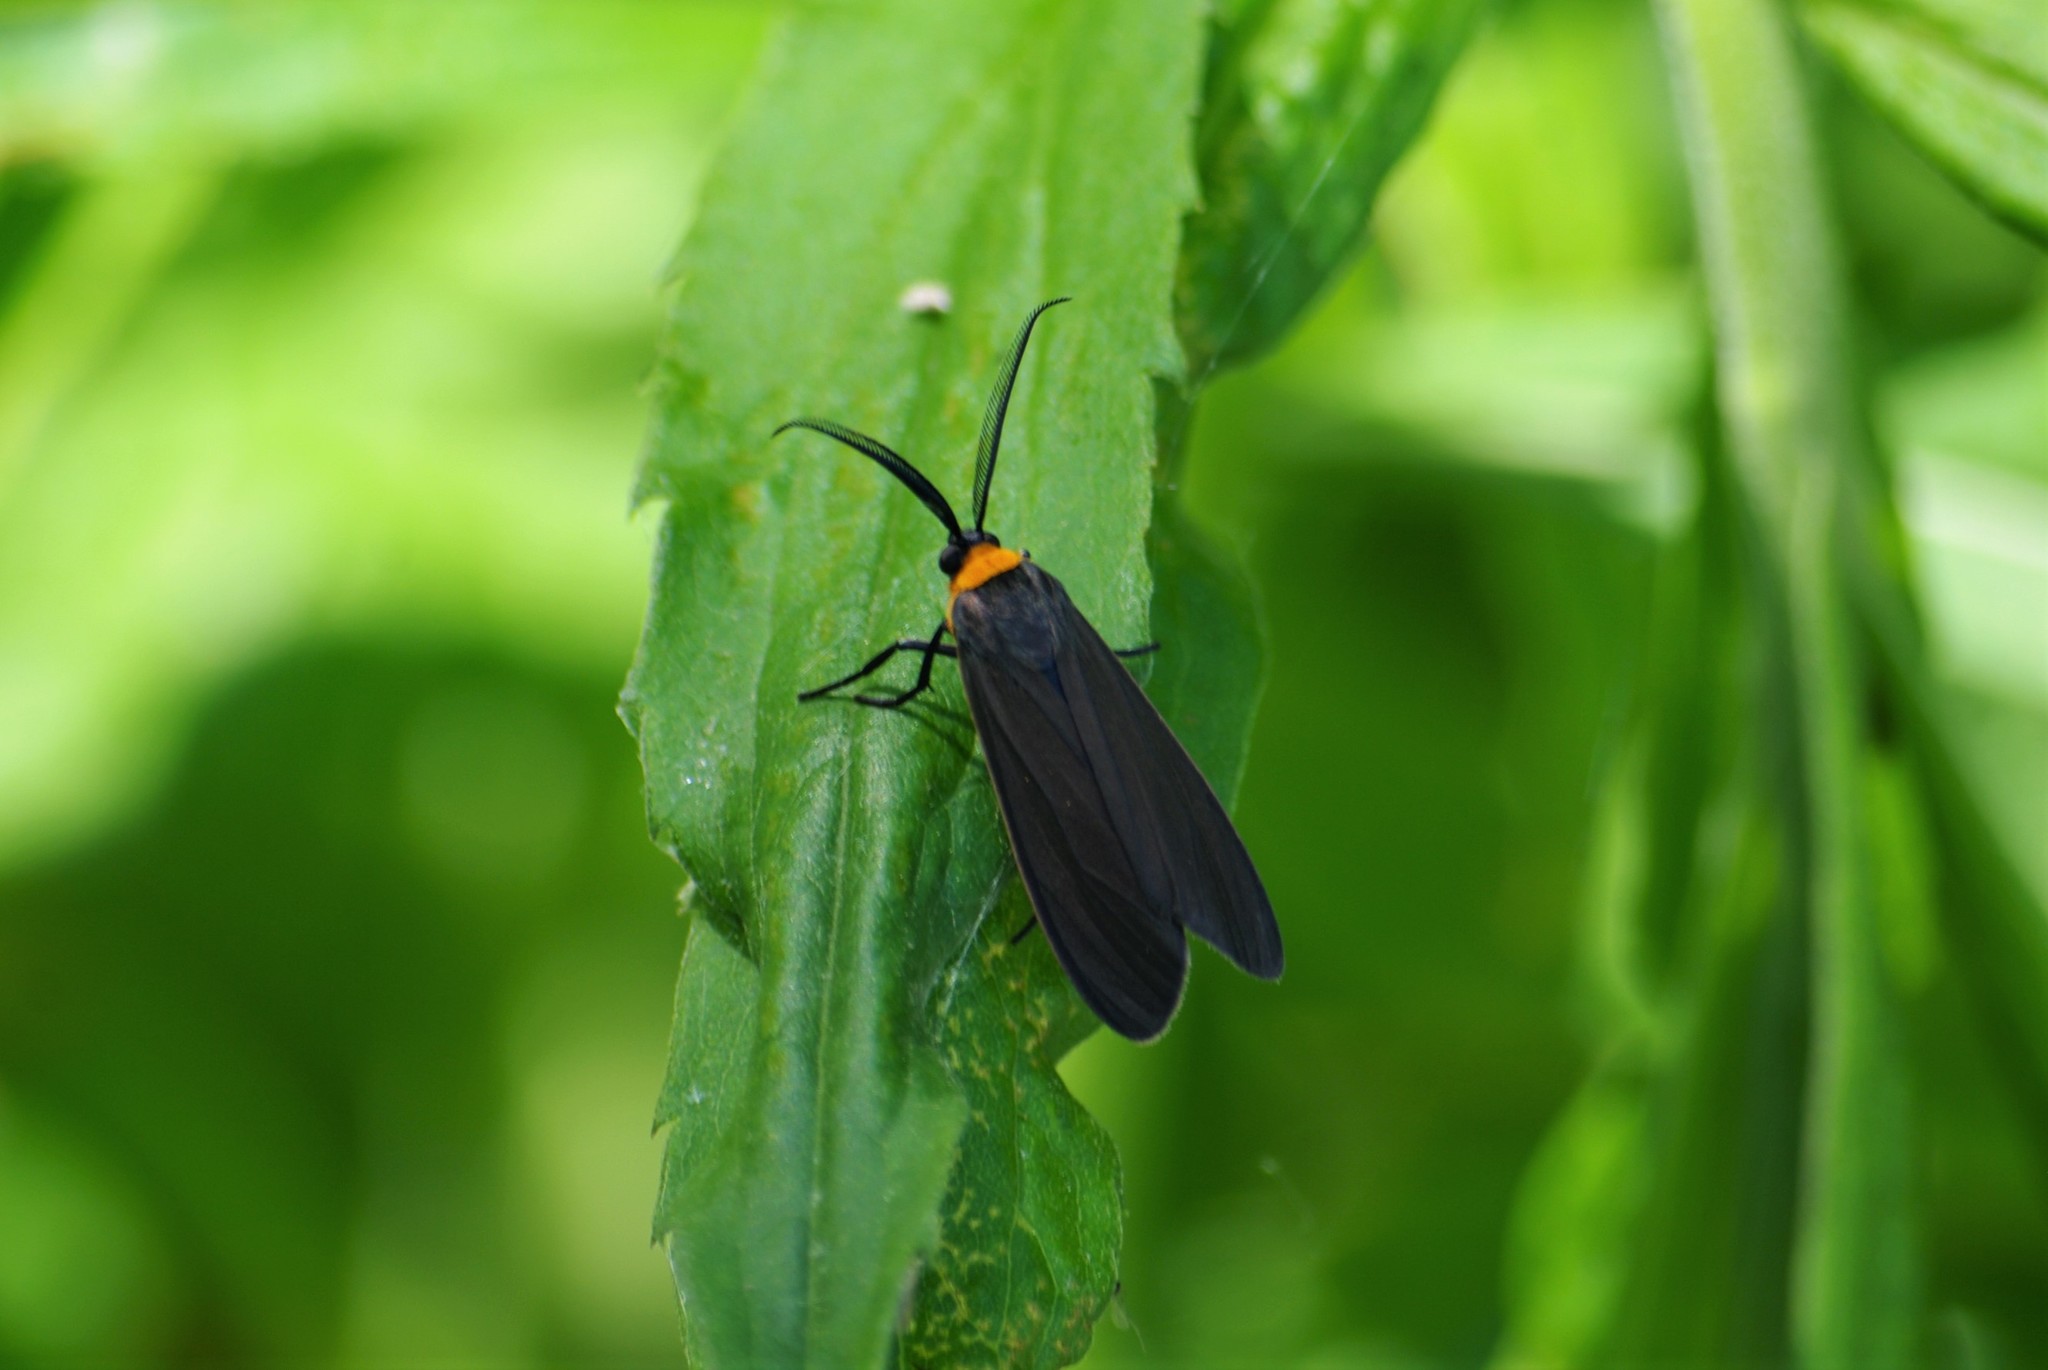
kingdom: Animalia
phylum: Arthropoda
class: Insecta
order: Lepidoptera
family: Erebidae
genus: Cisseps
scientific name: Cisseps fulvicollis
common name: Yellow-collared scape moth
